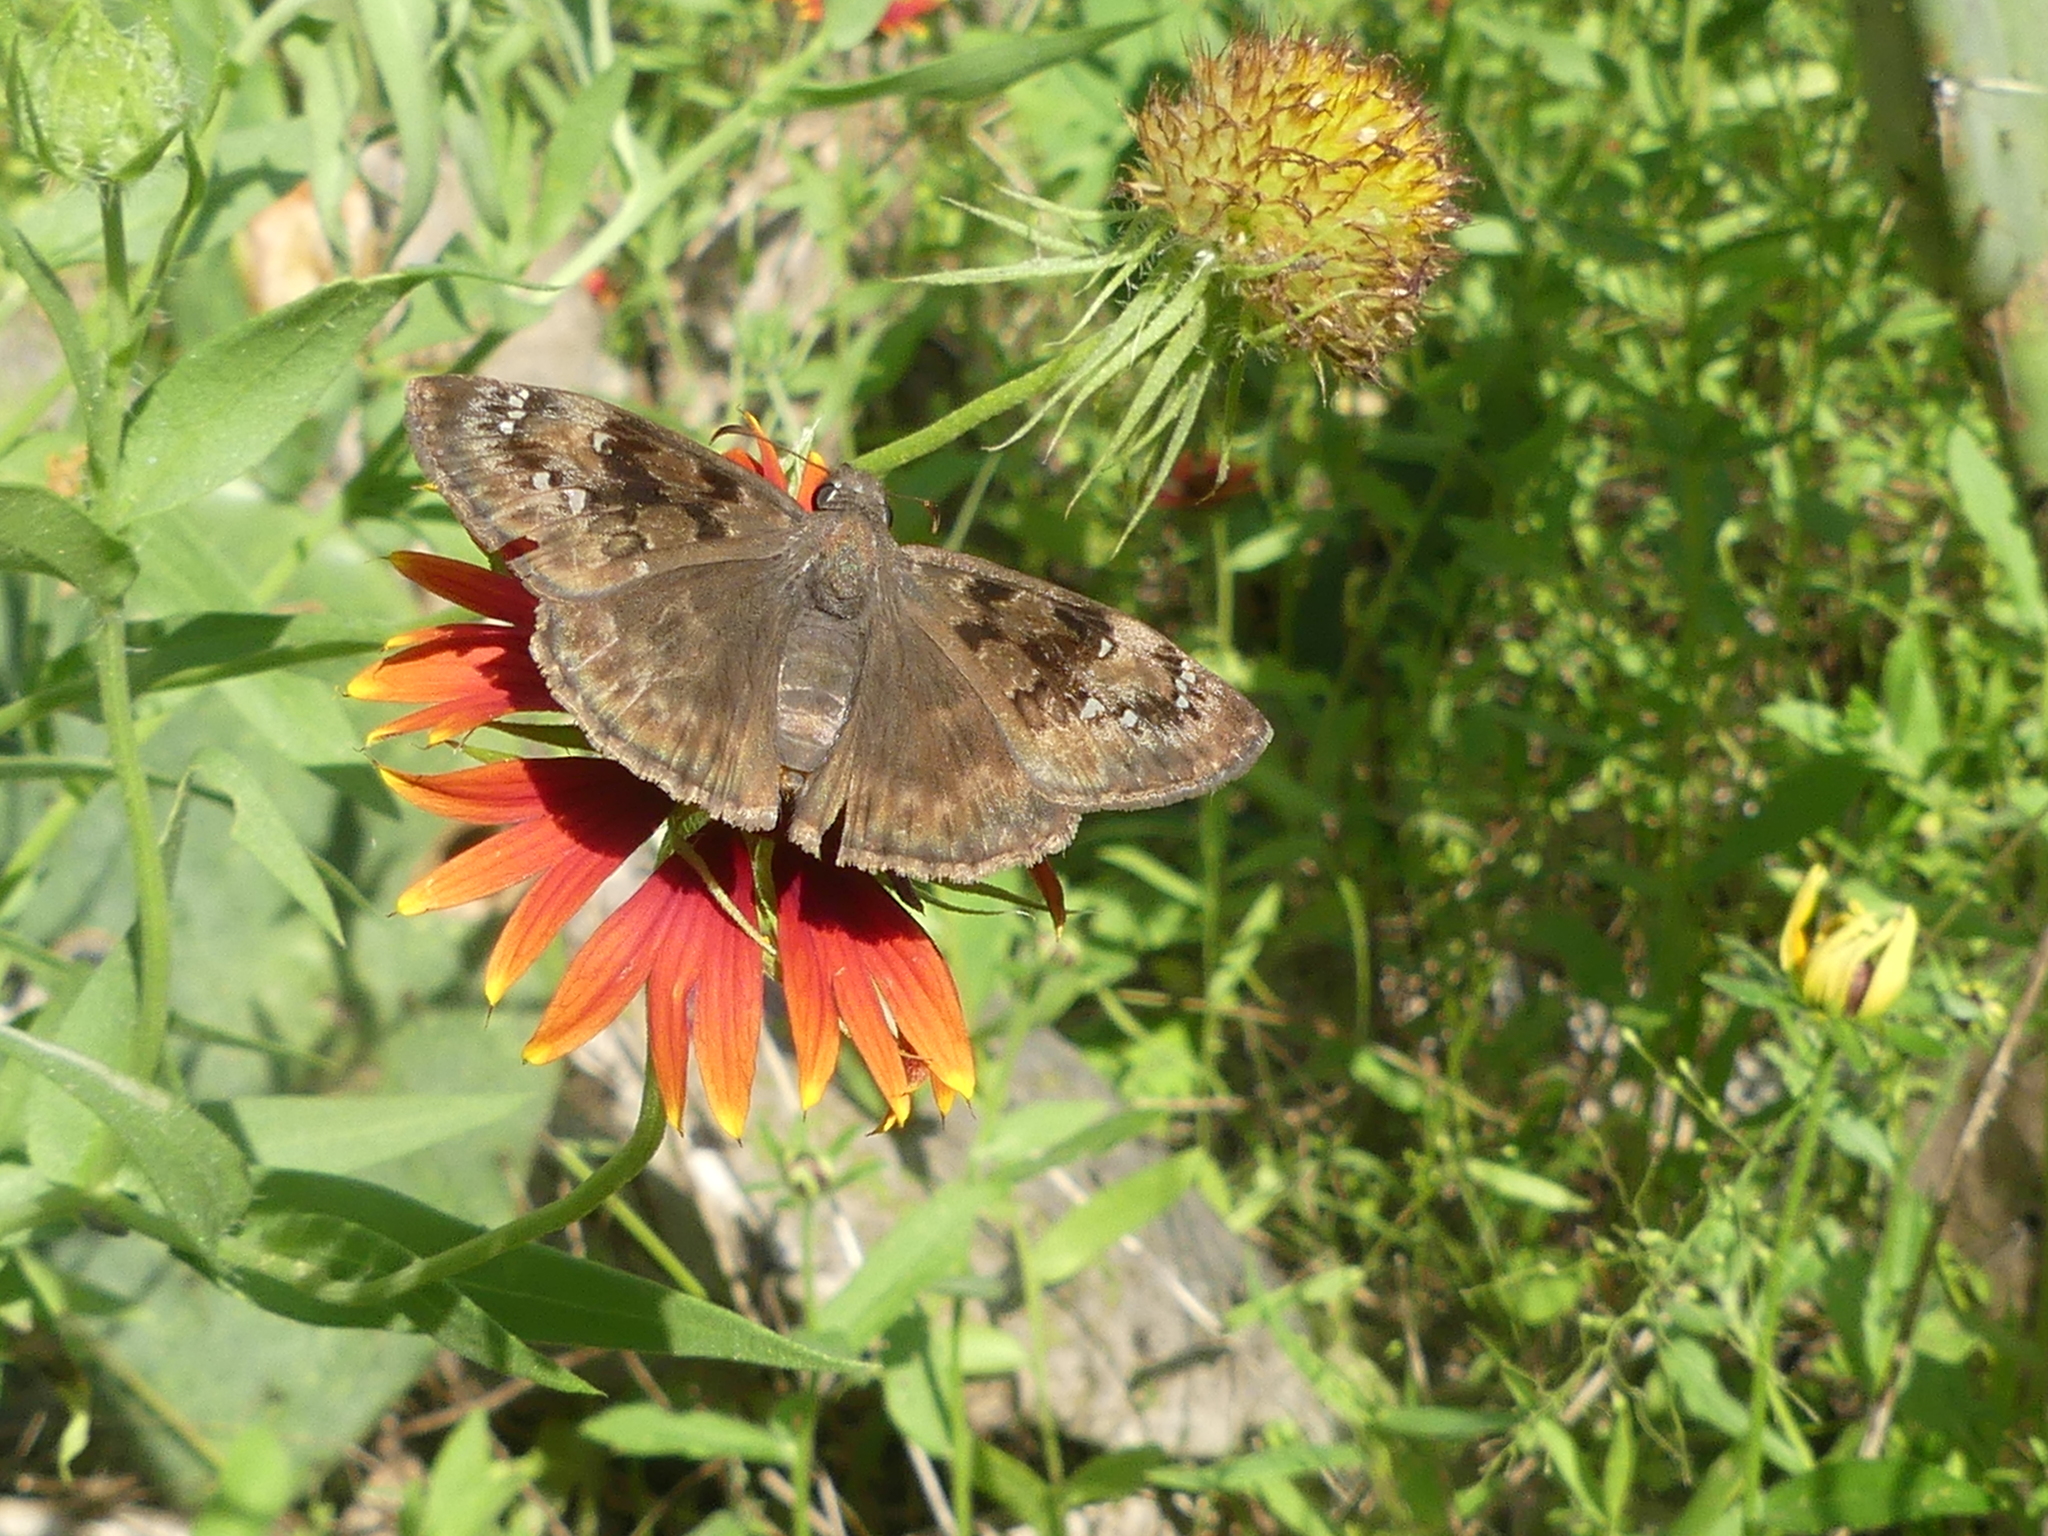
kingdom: Animalia
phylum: Arthropoda
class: Insecta
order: Lepidoptera
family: Hesperiidae
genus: Erynnis
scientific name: Erynnis horatius
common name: Horace's duskywing
